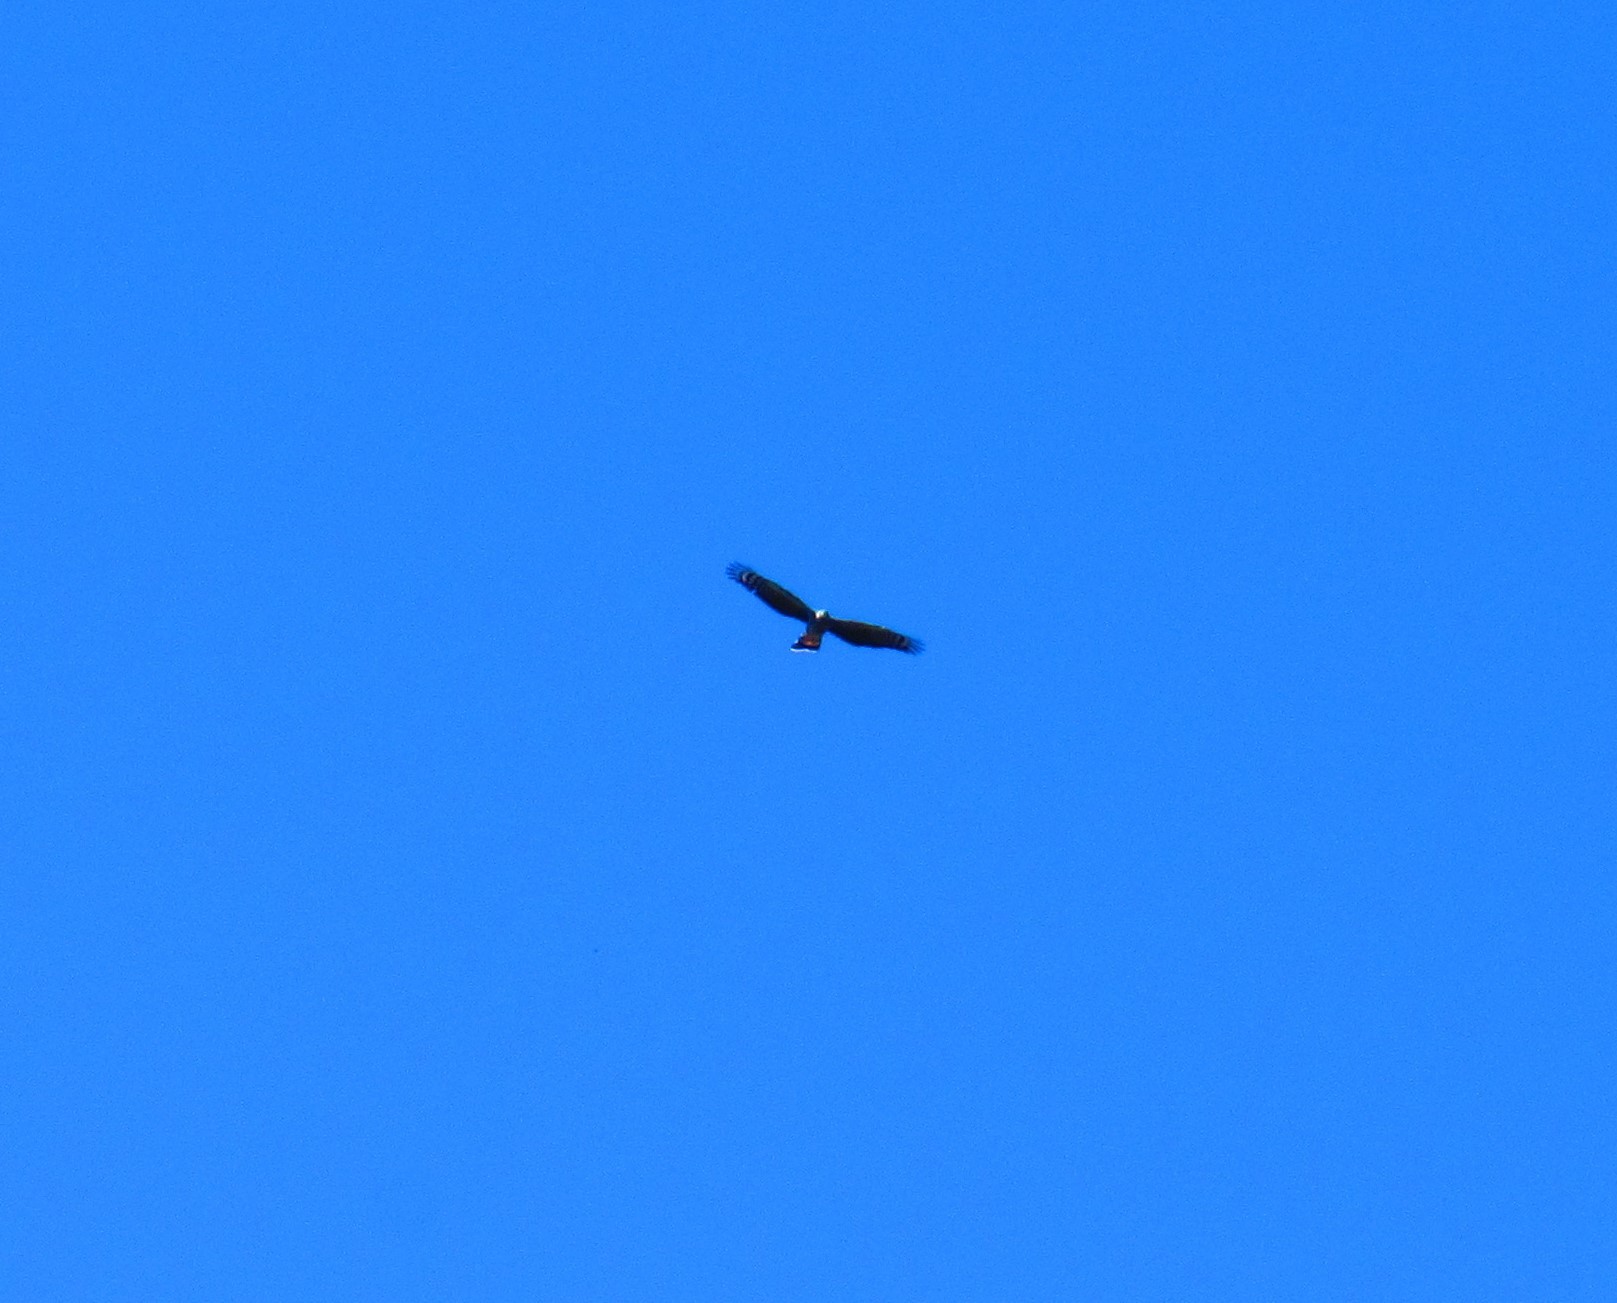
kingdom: Animalia
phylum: Chordata
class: Aves
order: Accipitriformes
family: Accipitridae
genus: Chondrohierax
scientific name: Chondrohierax uncinatus
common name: Hook-billed kite
